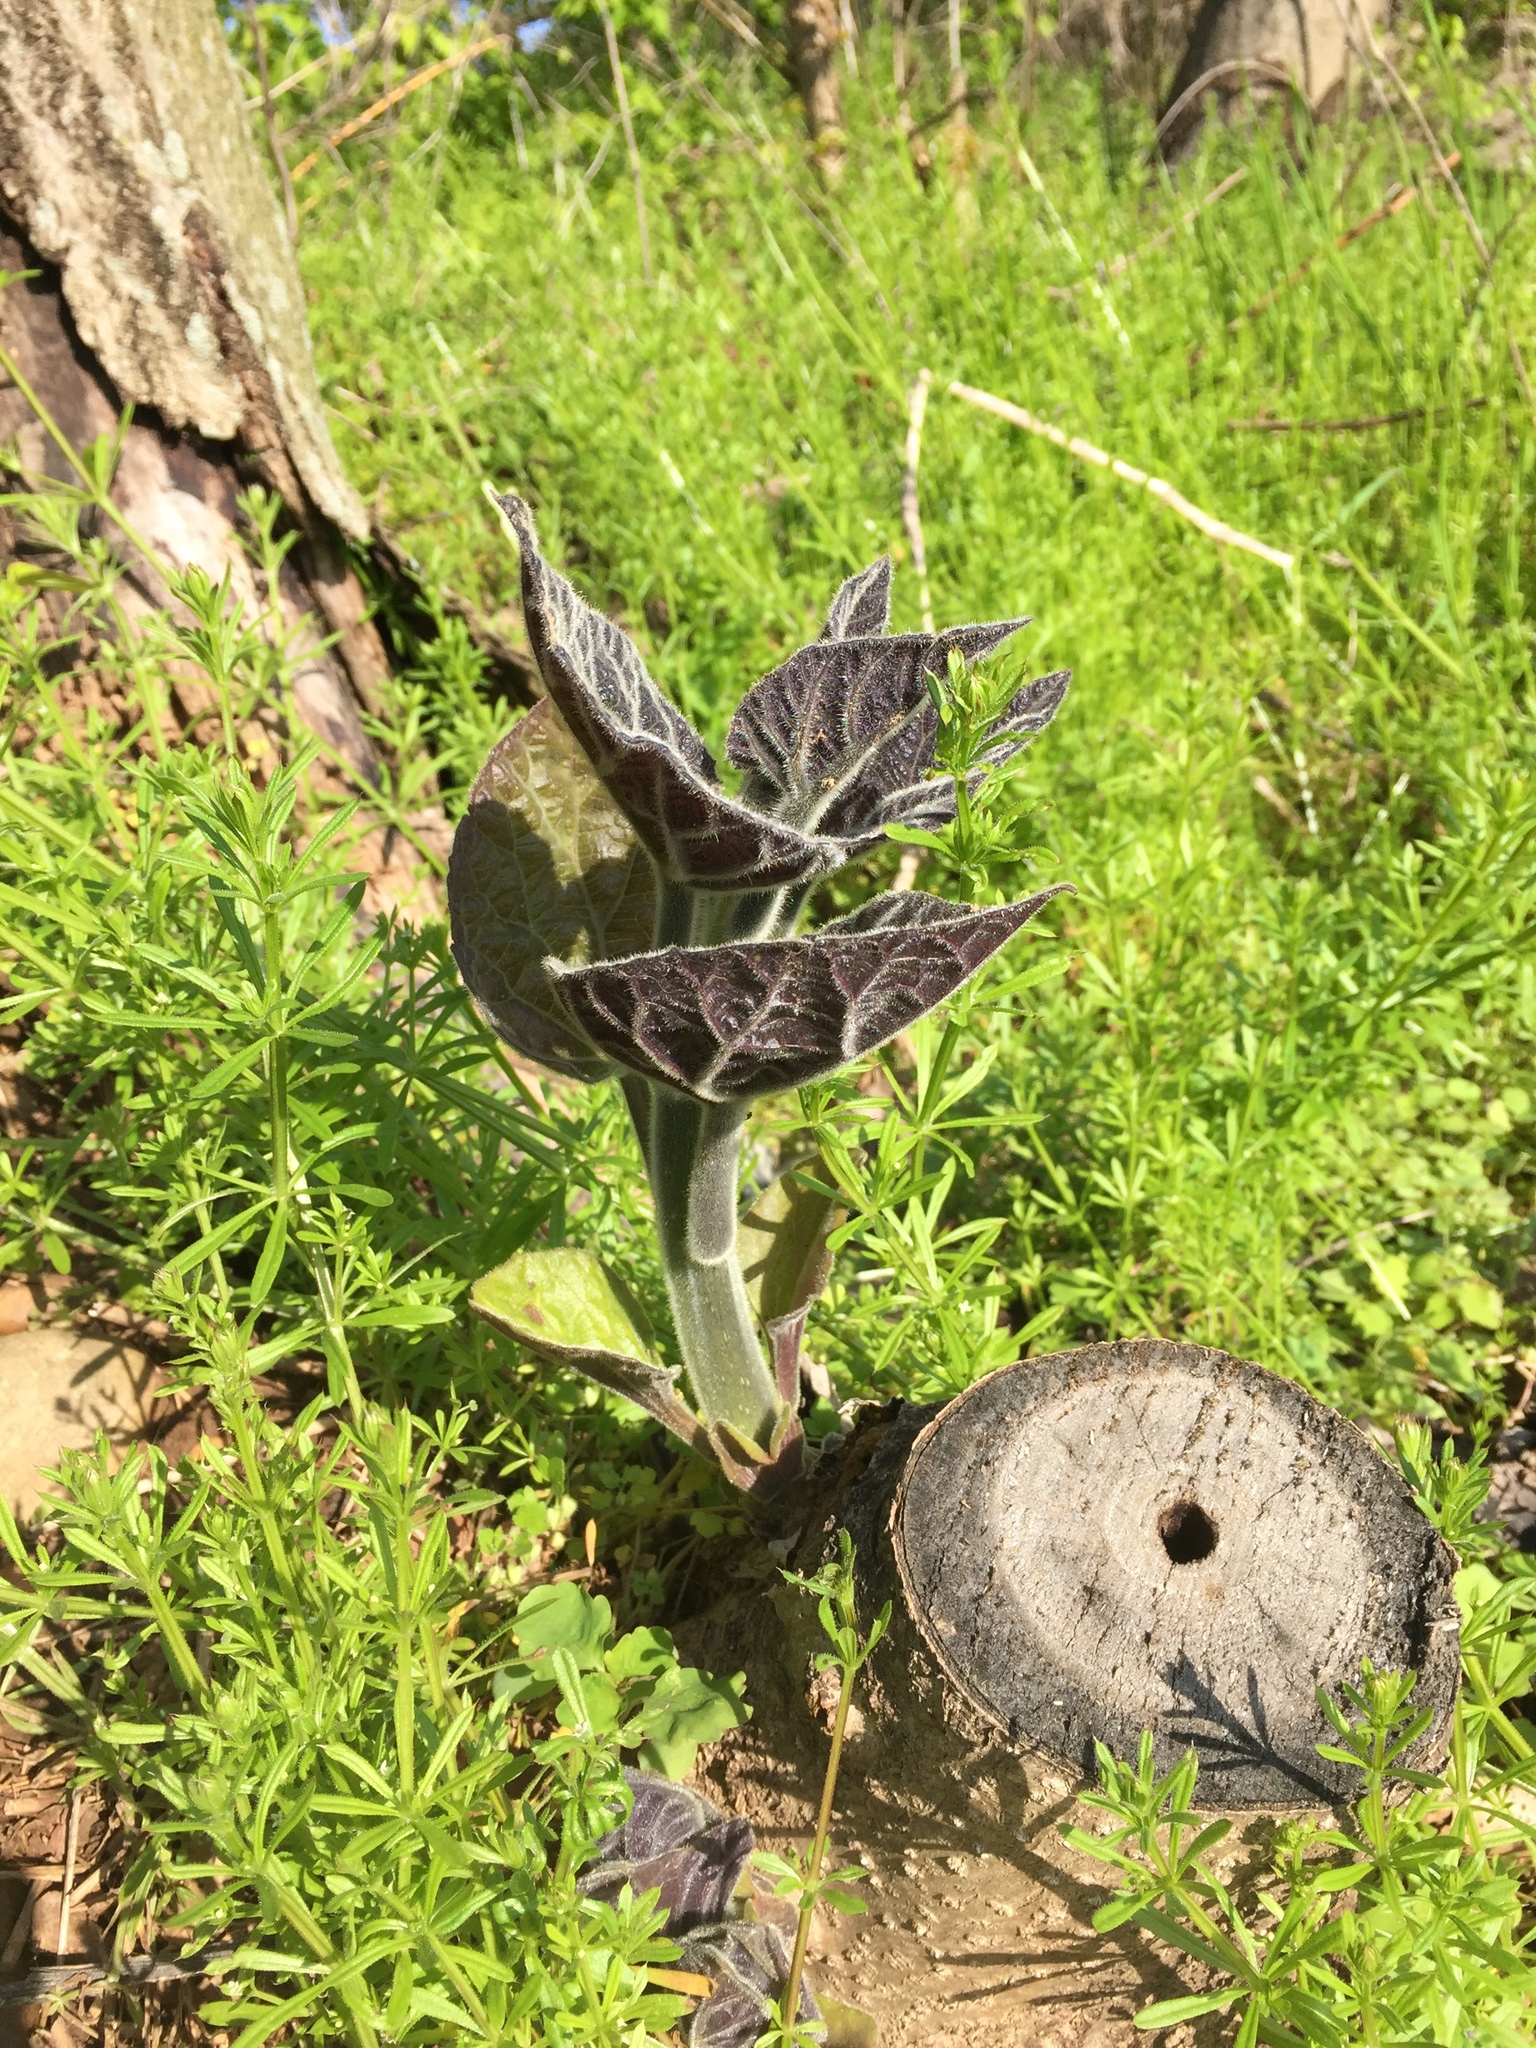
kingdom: Plantae
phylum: Tracheophyta
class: Magnoliopsida
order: Lamiales
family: Paulowniaceae
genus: Paulownia
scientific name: Paulownia tomentosa
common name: Foxglove-tree
